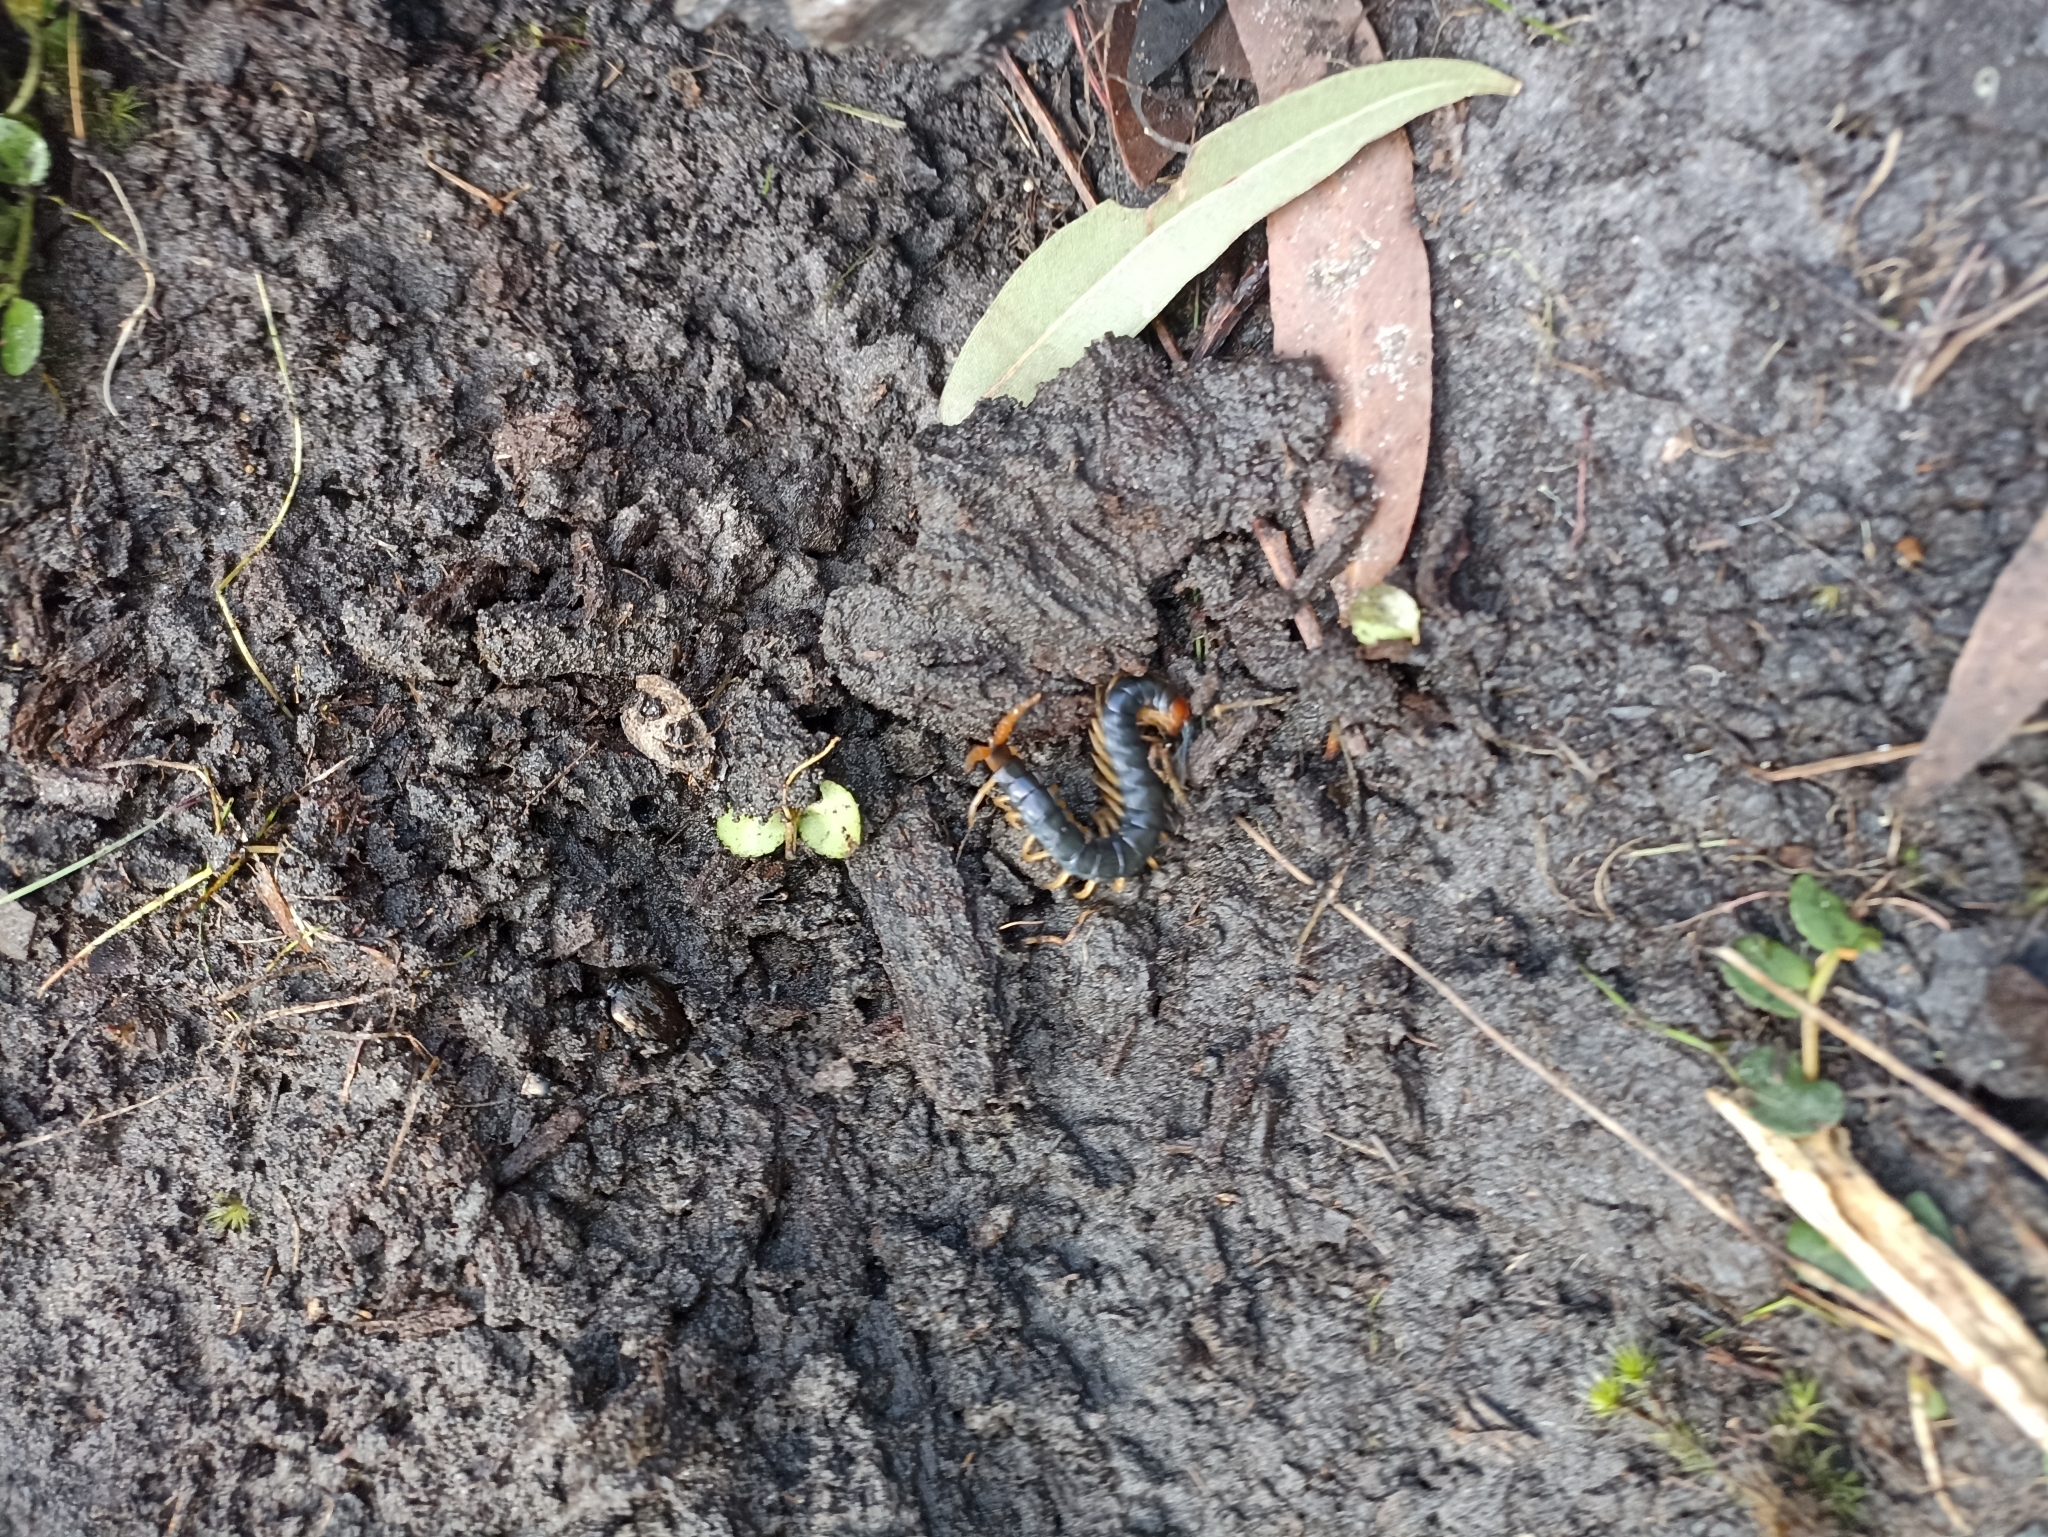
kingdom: Animalia
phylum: Arthropoda
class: Chilopoda
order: Scolopendromorpha
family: Scolopendridae
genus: Cormocephalus
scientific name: Cormocephalus westwoodi
